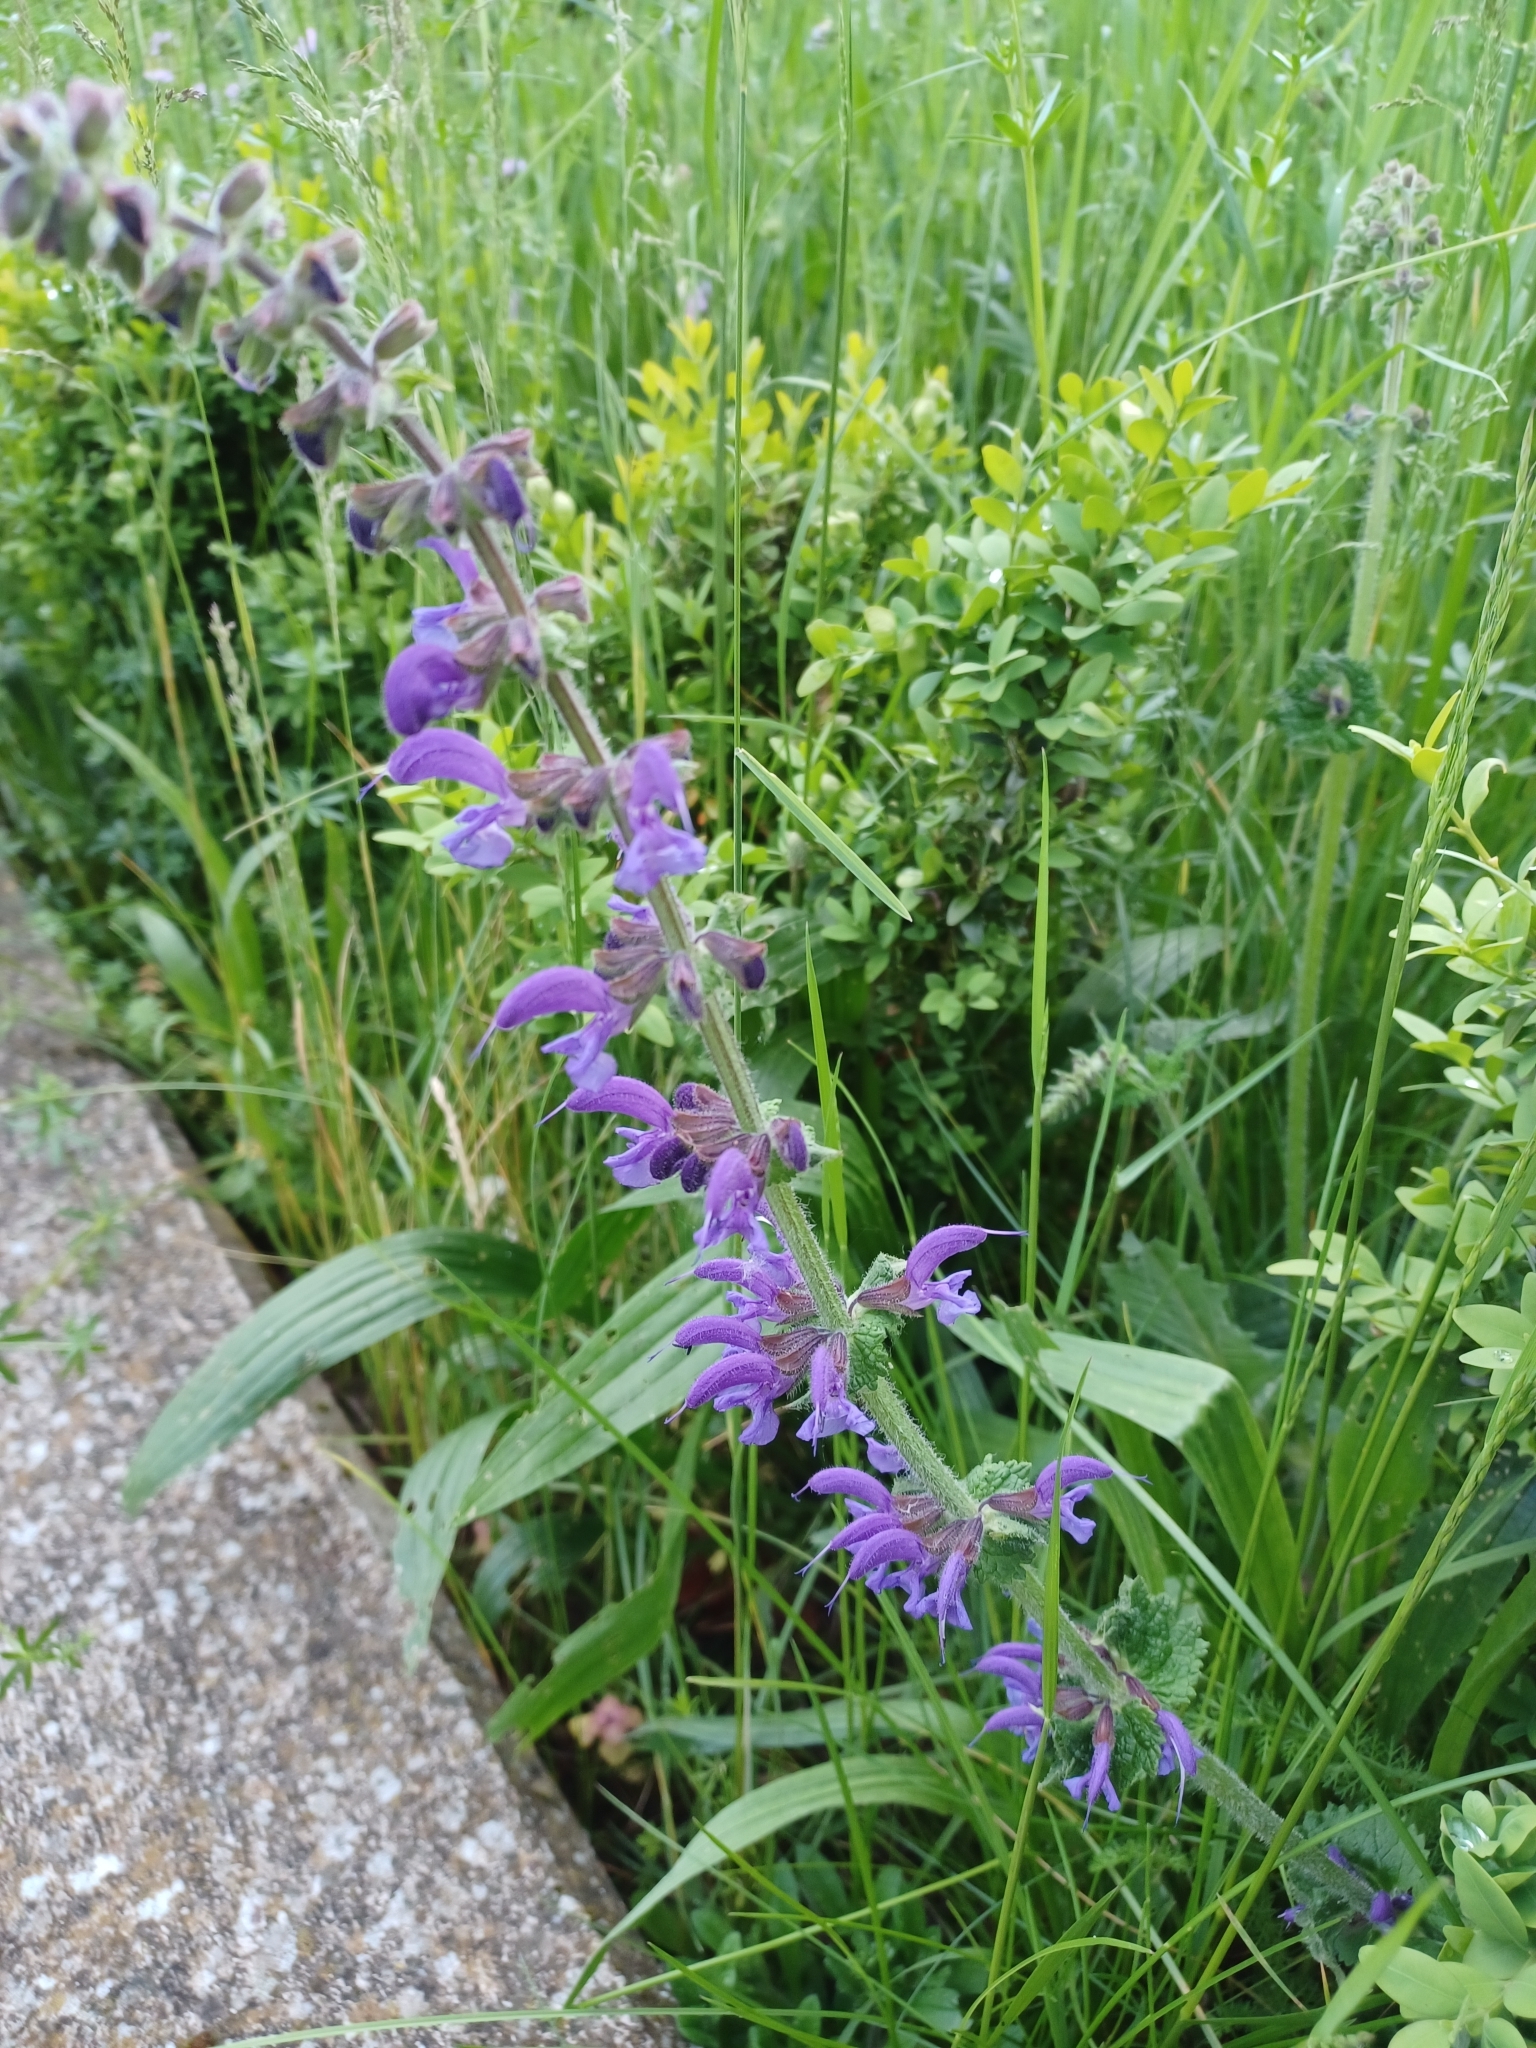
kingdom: Plantae
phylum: Tracheophyta
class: Magnoliopsida
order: Lamiales
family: Lamiaceae
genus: Salvia
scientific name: Salvia pratensis
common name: Meadow sage
